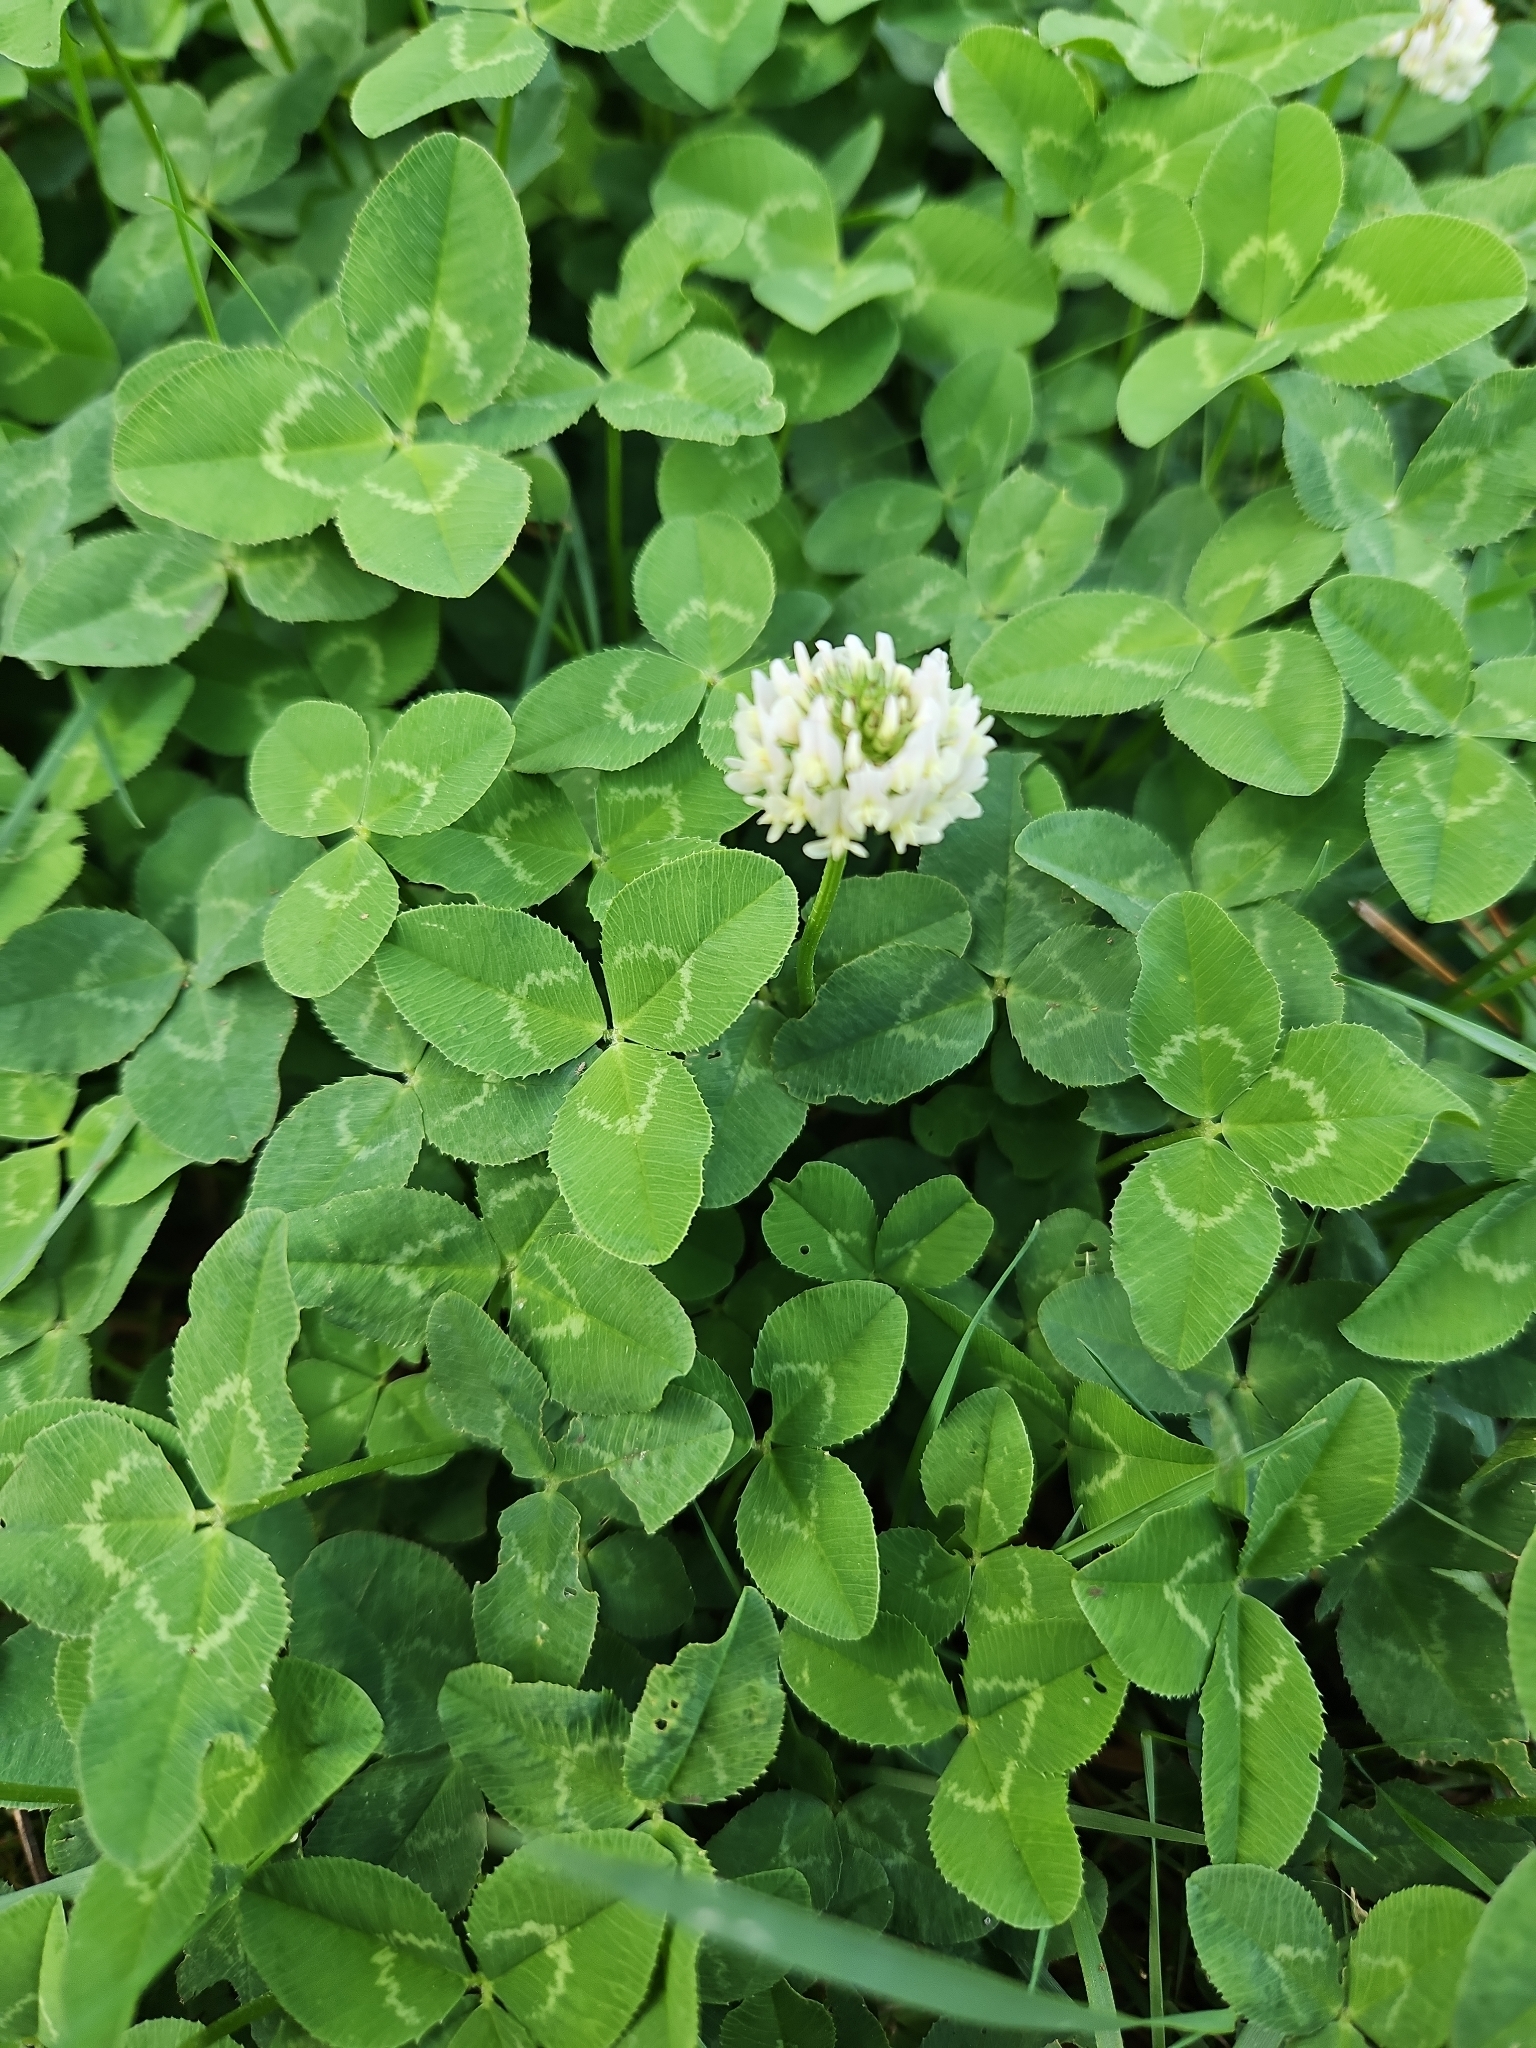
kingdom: Plantae
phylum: Tracheophyta
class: Magnoliopsida
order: Fabales
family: Fabaceae
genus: Trifolium
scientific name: Trifolium repens
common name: White clover
